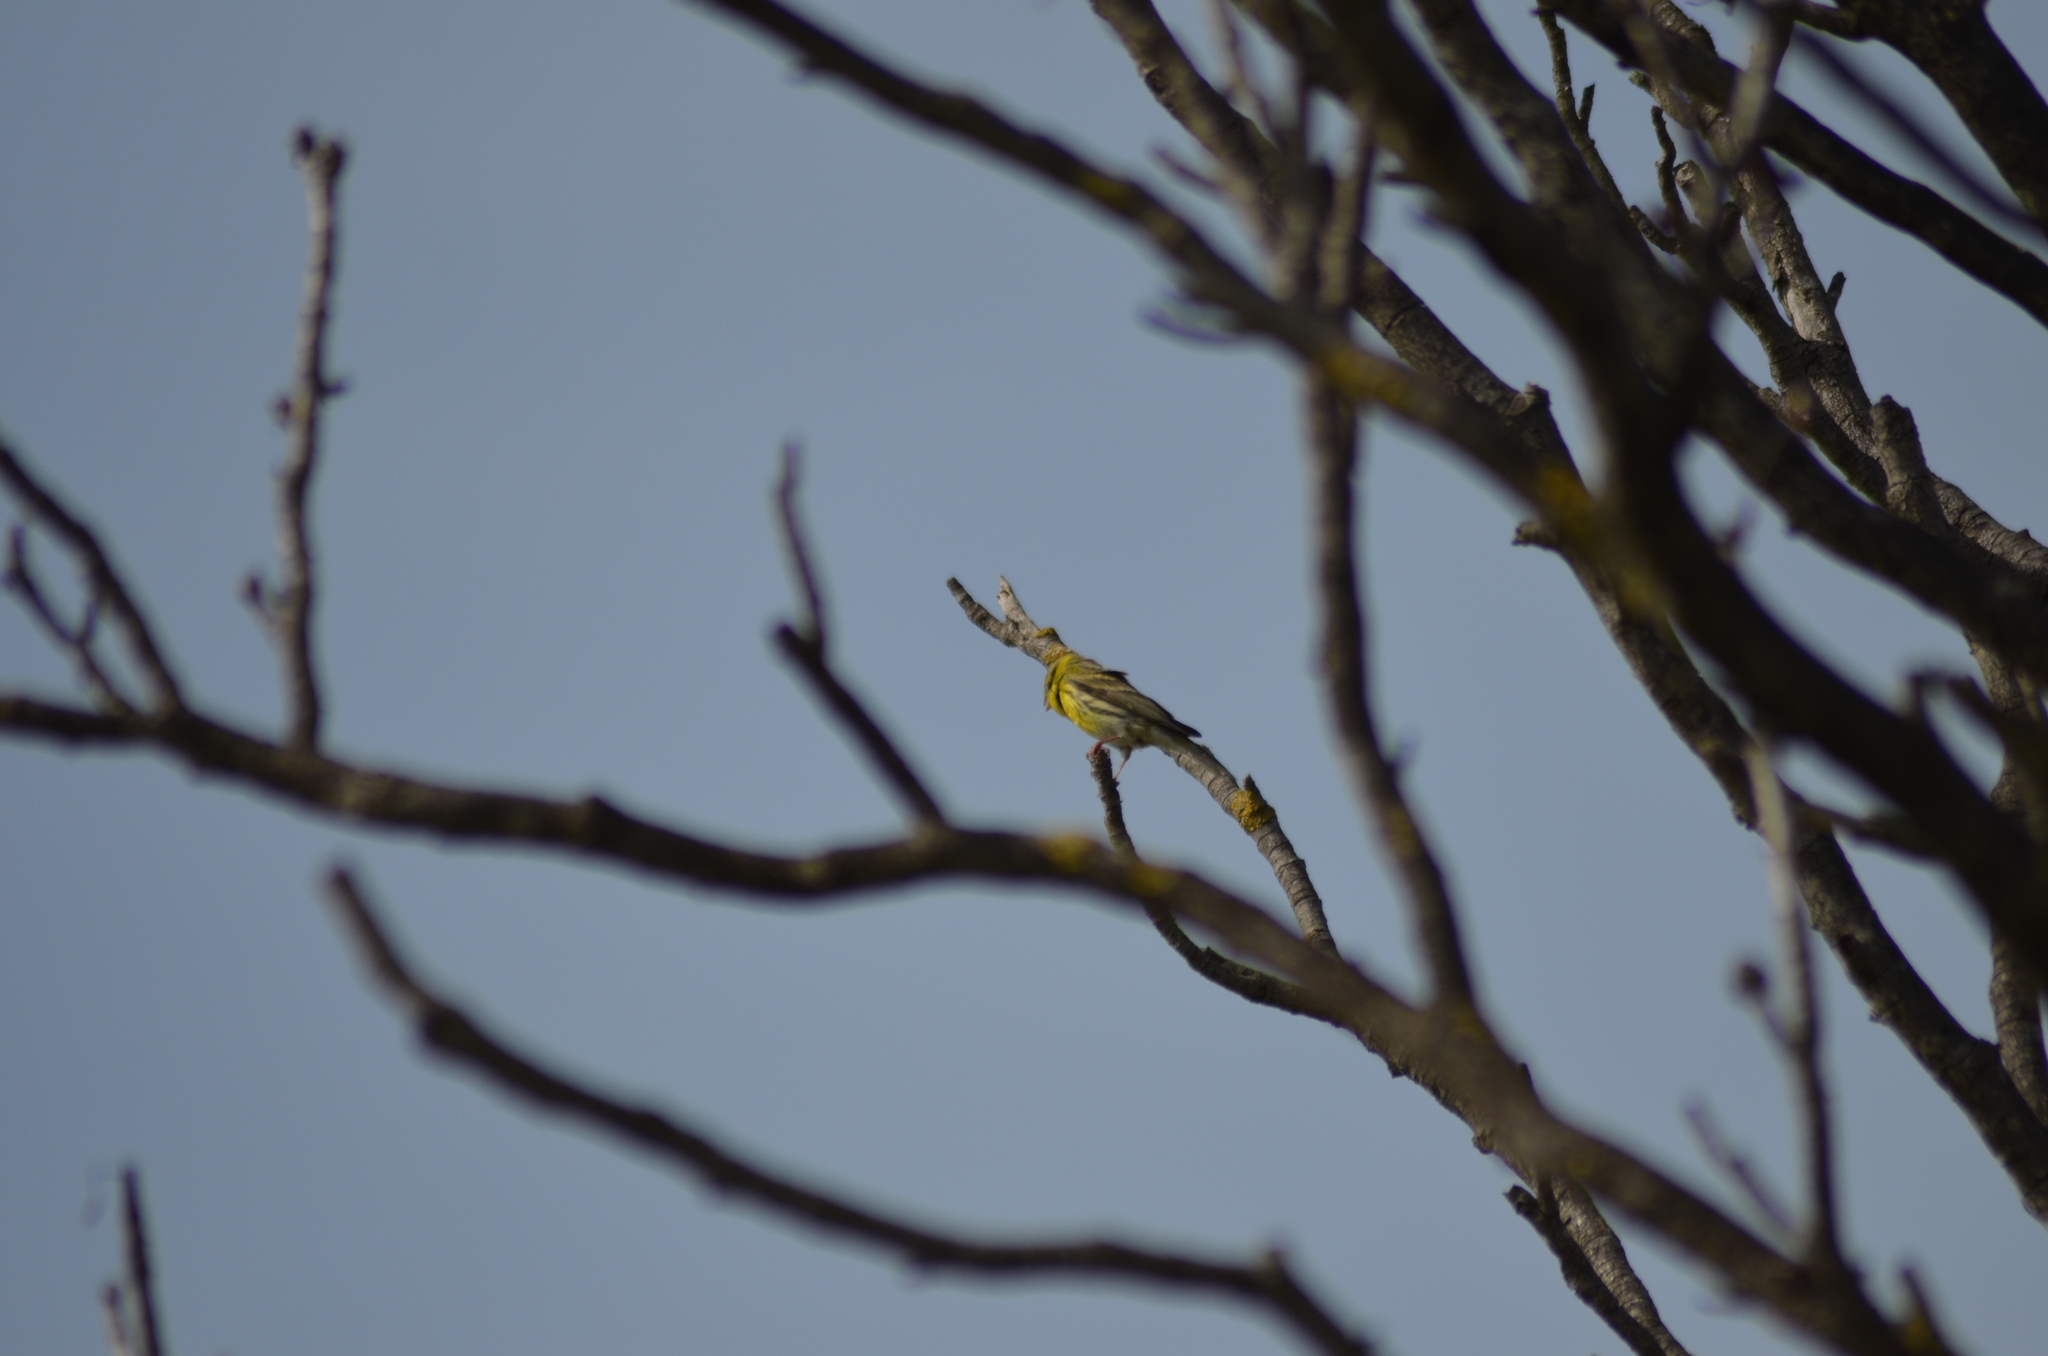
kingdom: Animalia
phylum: Chordata
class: Aves
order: Passeriformes
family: Fringillidae
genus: Serinus
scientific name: Serinus serinus
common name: European serin
